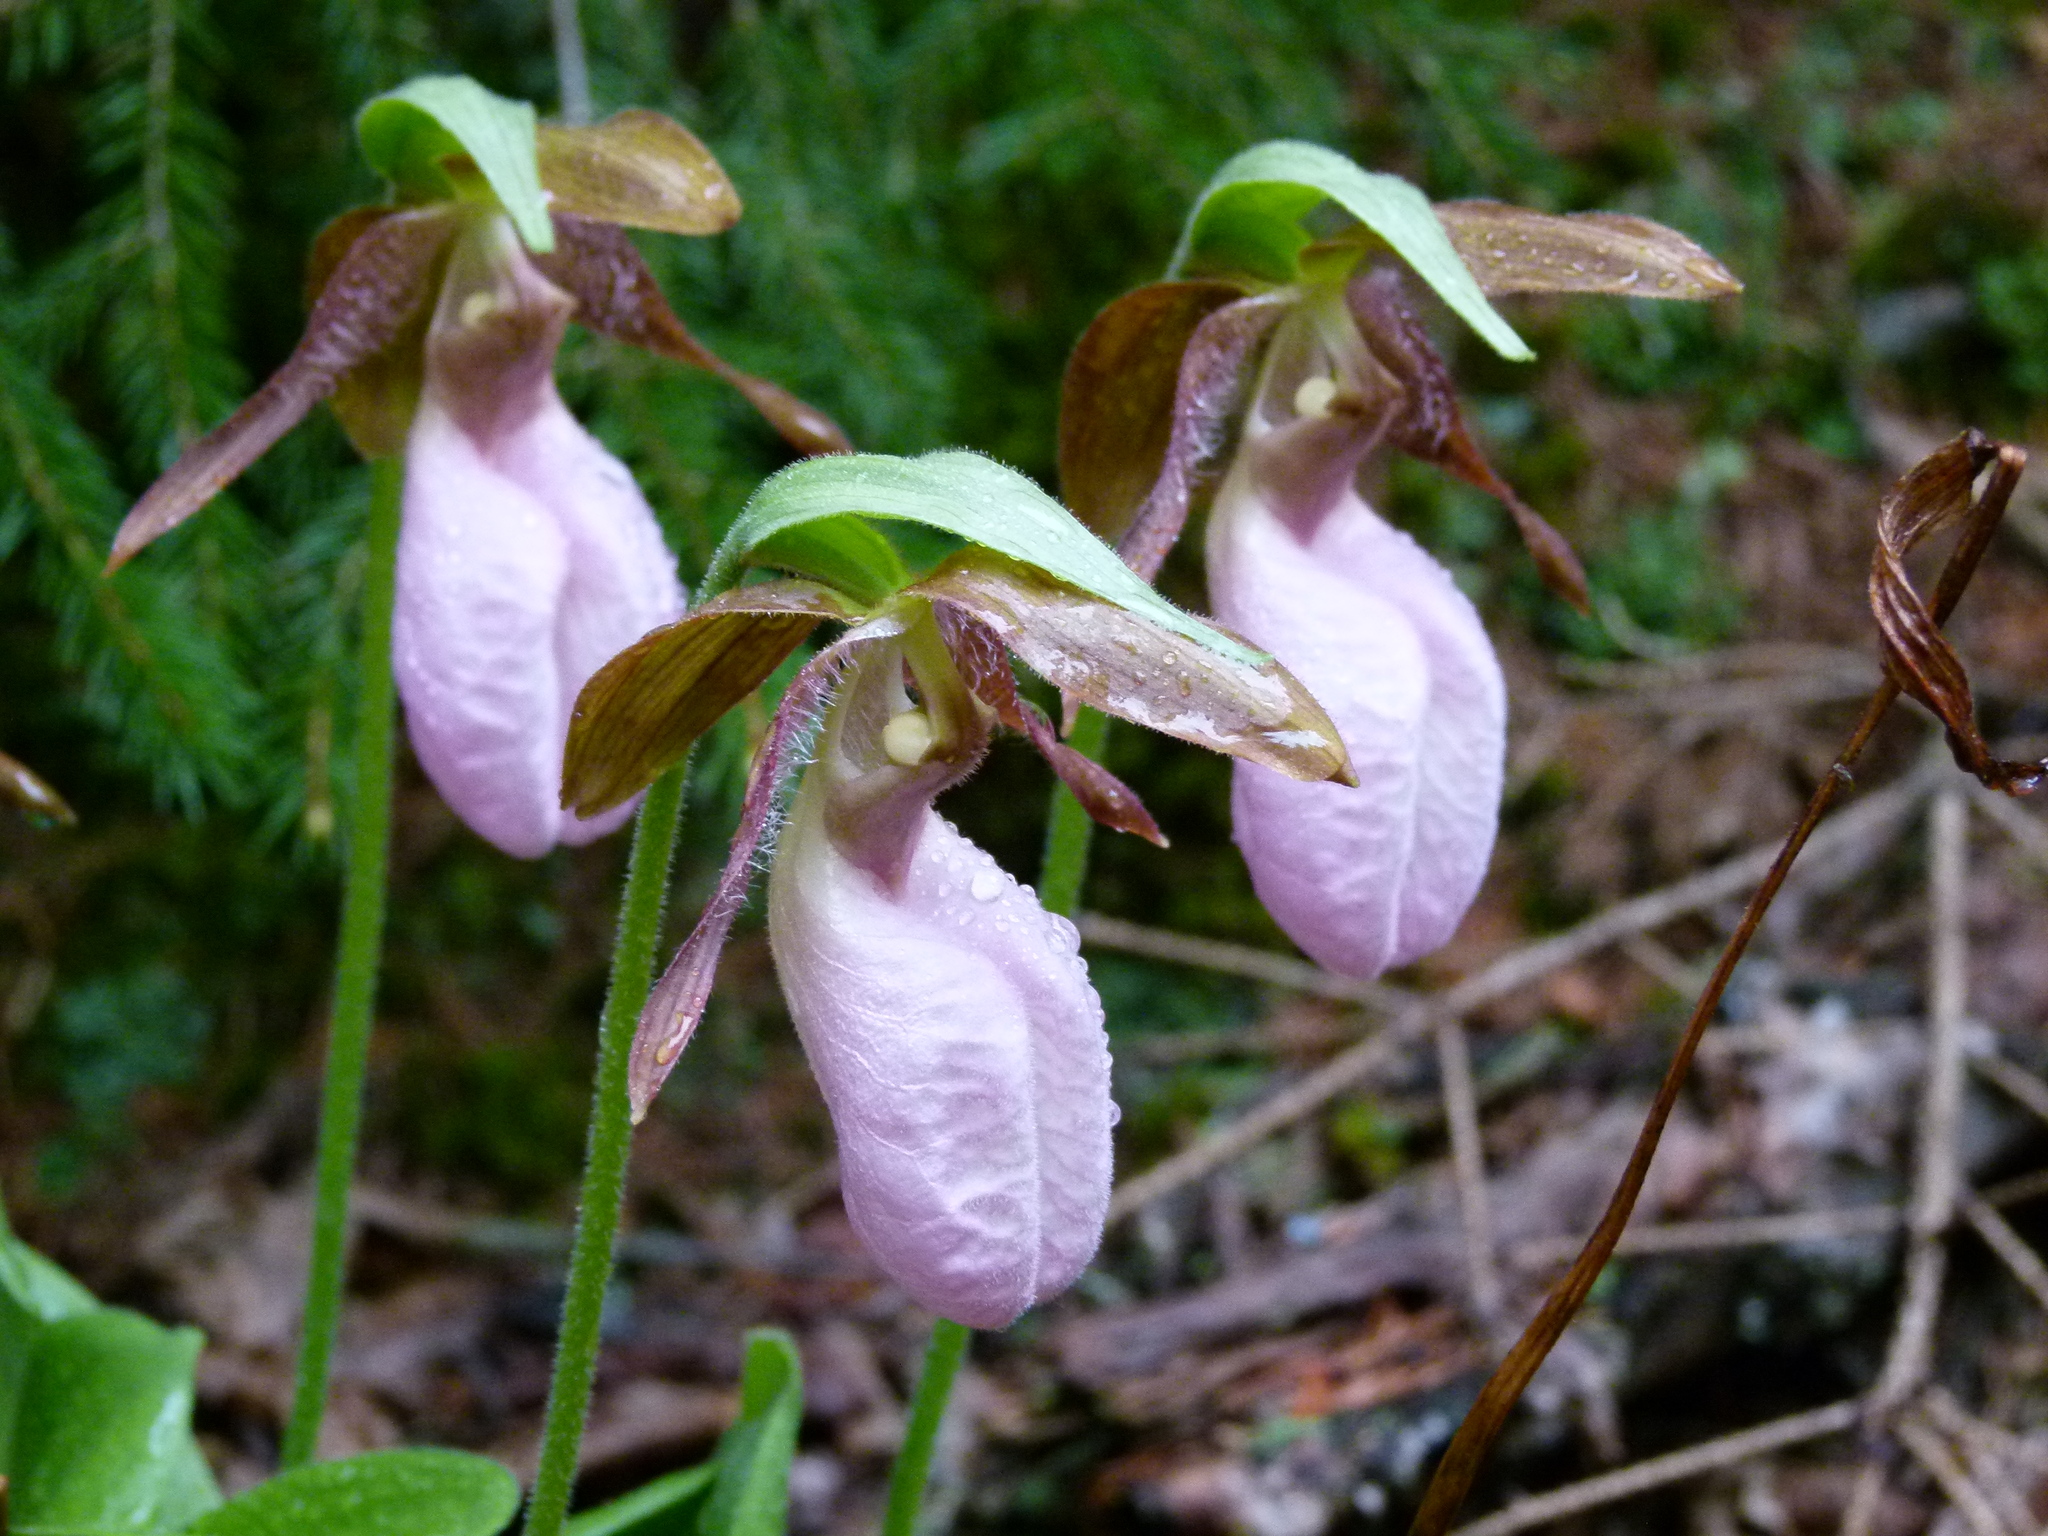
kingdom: Plantae
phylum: Tracheophyta
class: Liliopsida
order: Asparagales
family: Orchidaceae
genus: Cypripedium
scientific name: Cypripedium acaule
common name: Pink lady's-slipper
